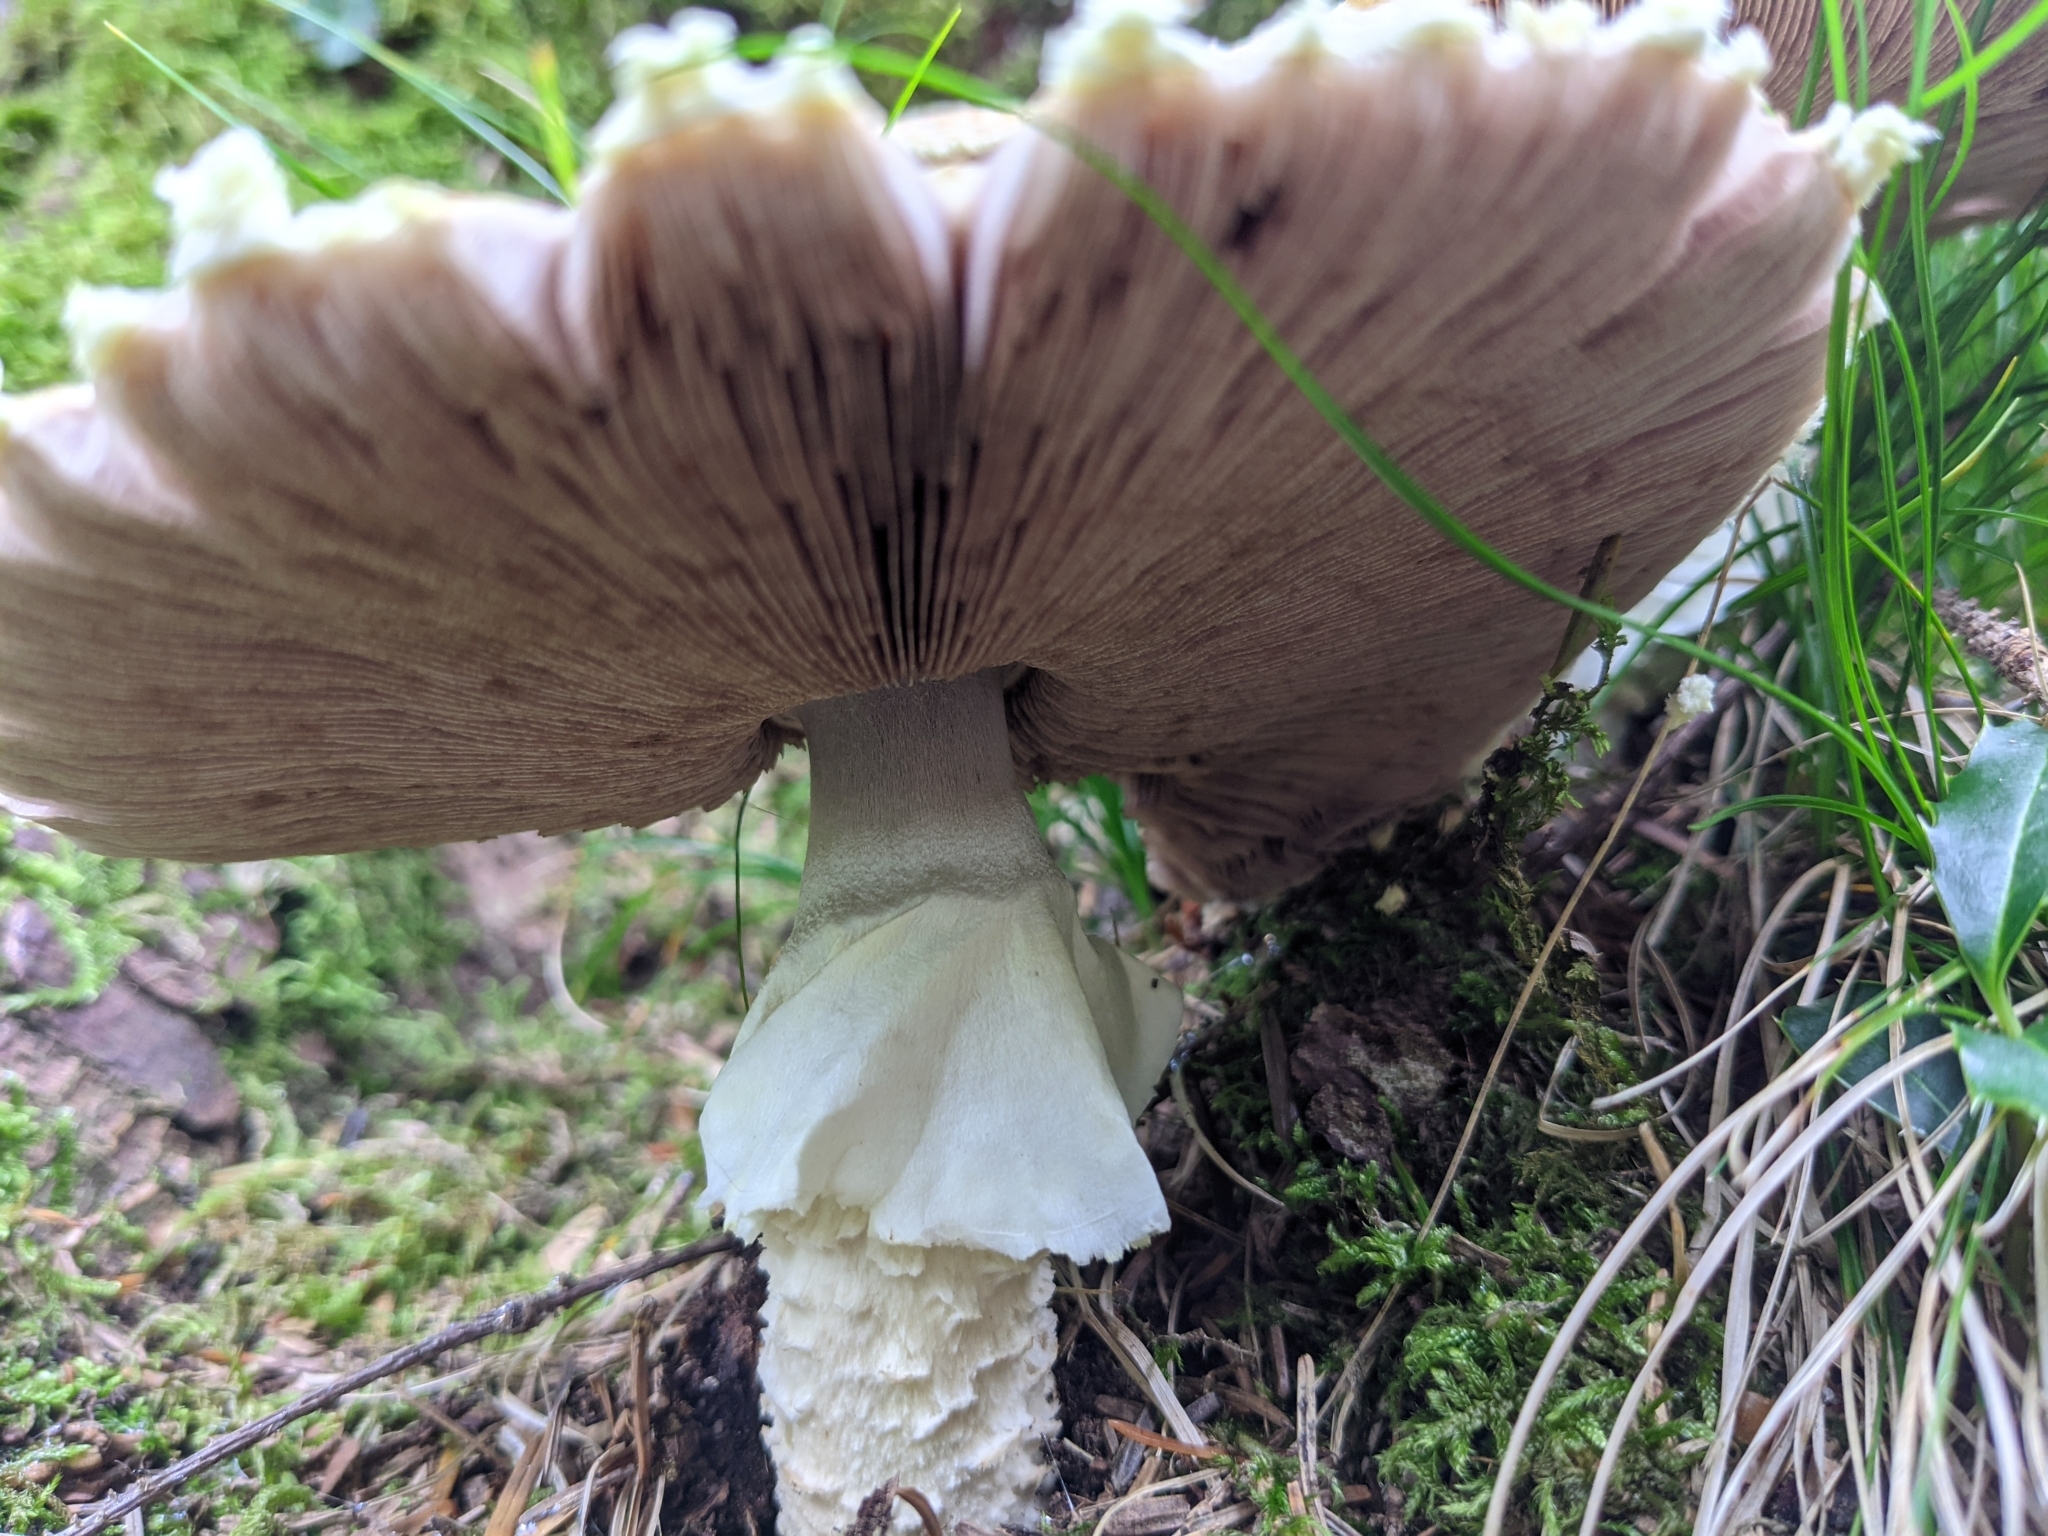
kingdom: Fungi
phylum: Basidiomycota
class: Agaricomycetes
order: Agaricales
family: Agaricaceae
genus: Agaricus
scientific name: Agaricus augustus
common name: Prince
